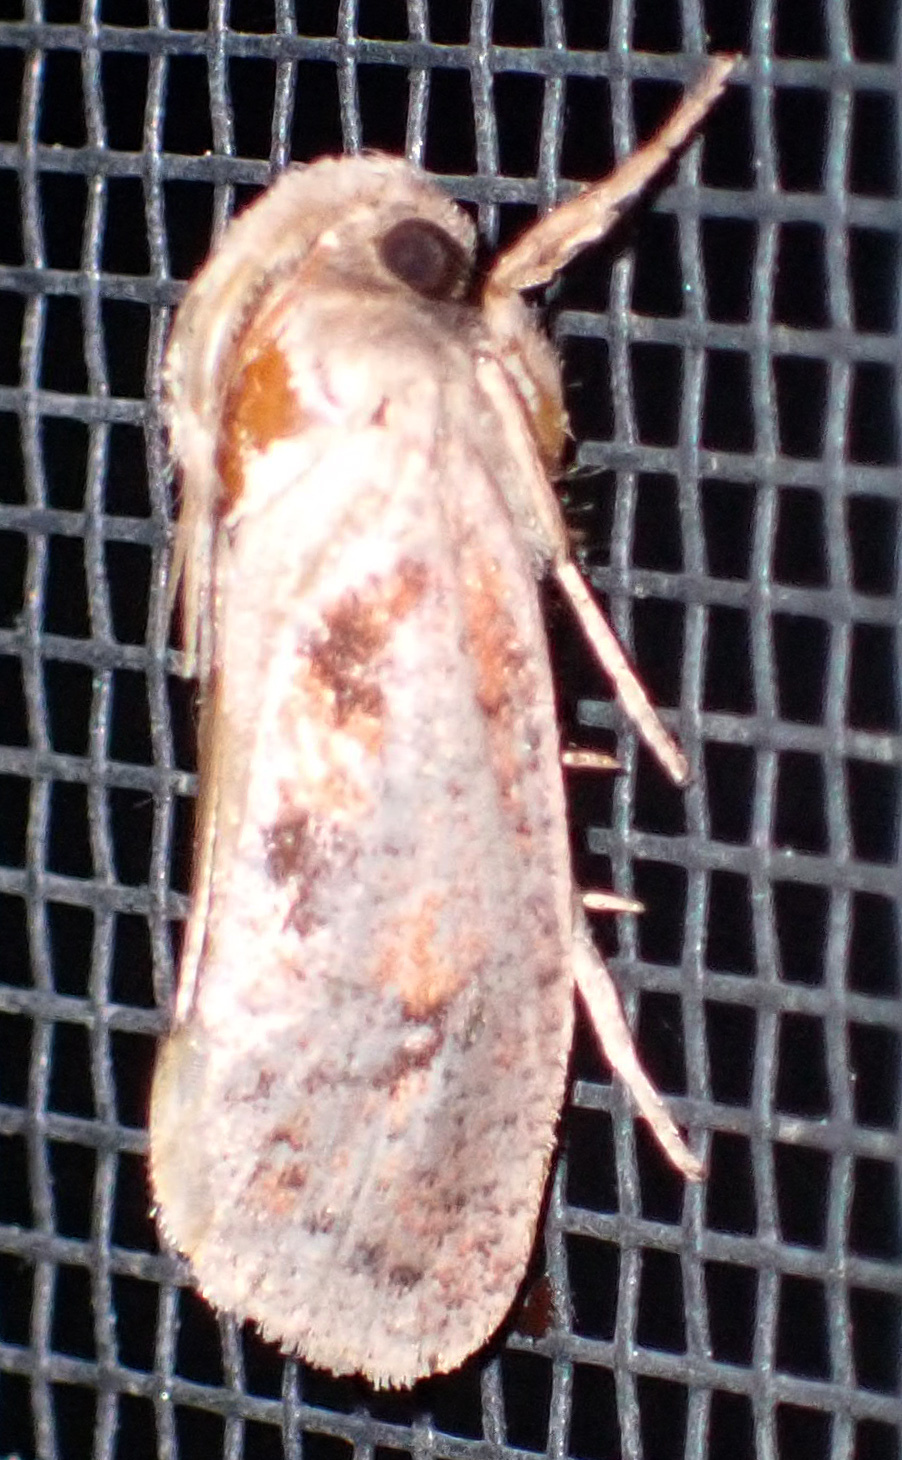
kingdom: Animalia
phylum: Arthropoda
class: Insecta
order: Lepidoptera
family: Tineidae
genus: Acrolophus
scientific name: Acrolophus plumifrontella
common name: Eastern grass tubeworm moth
